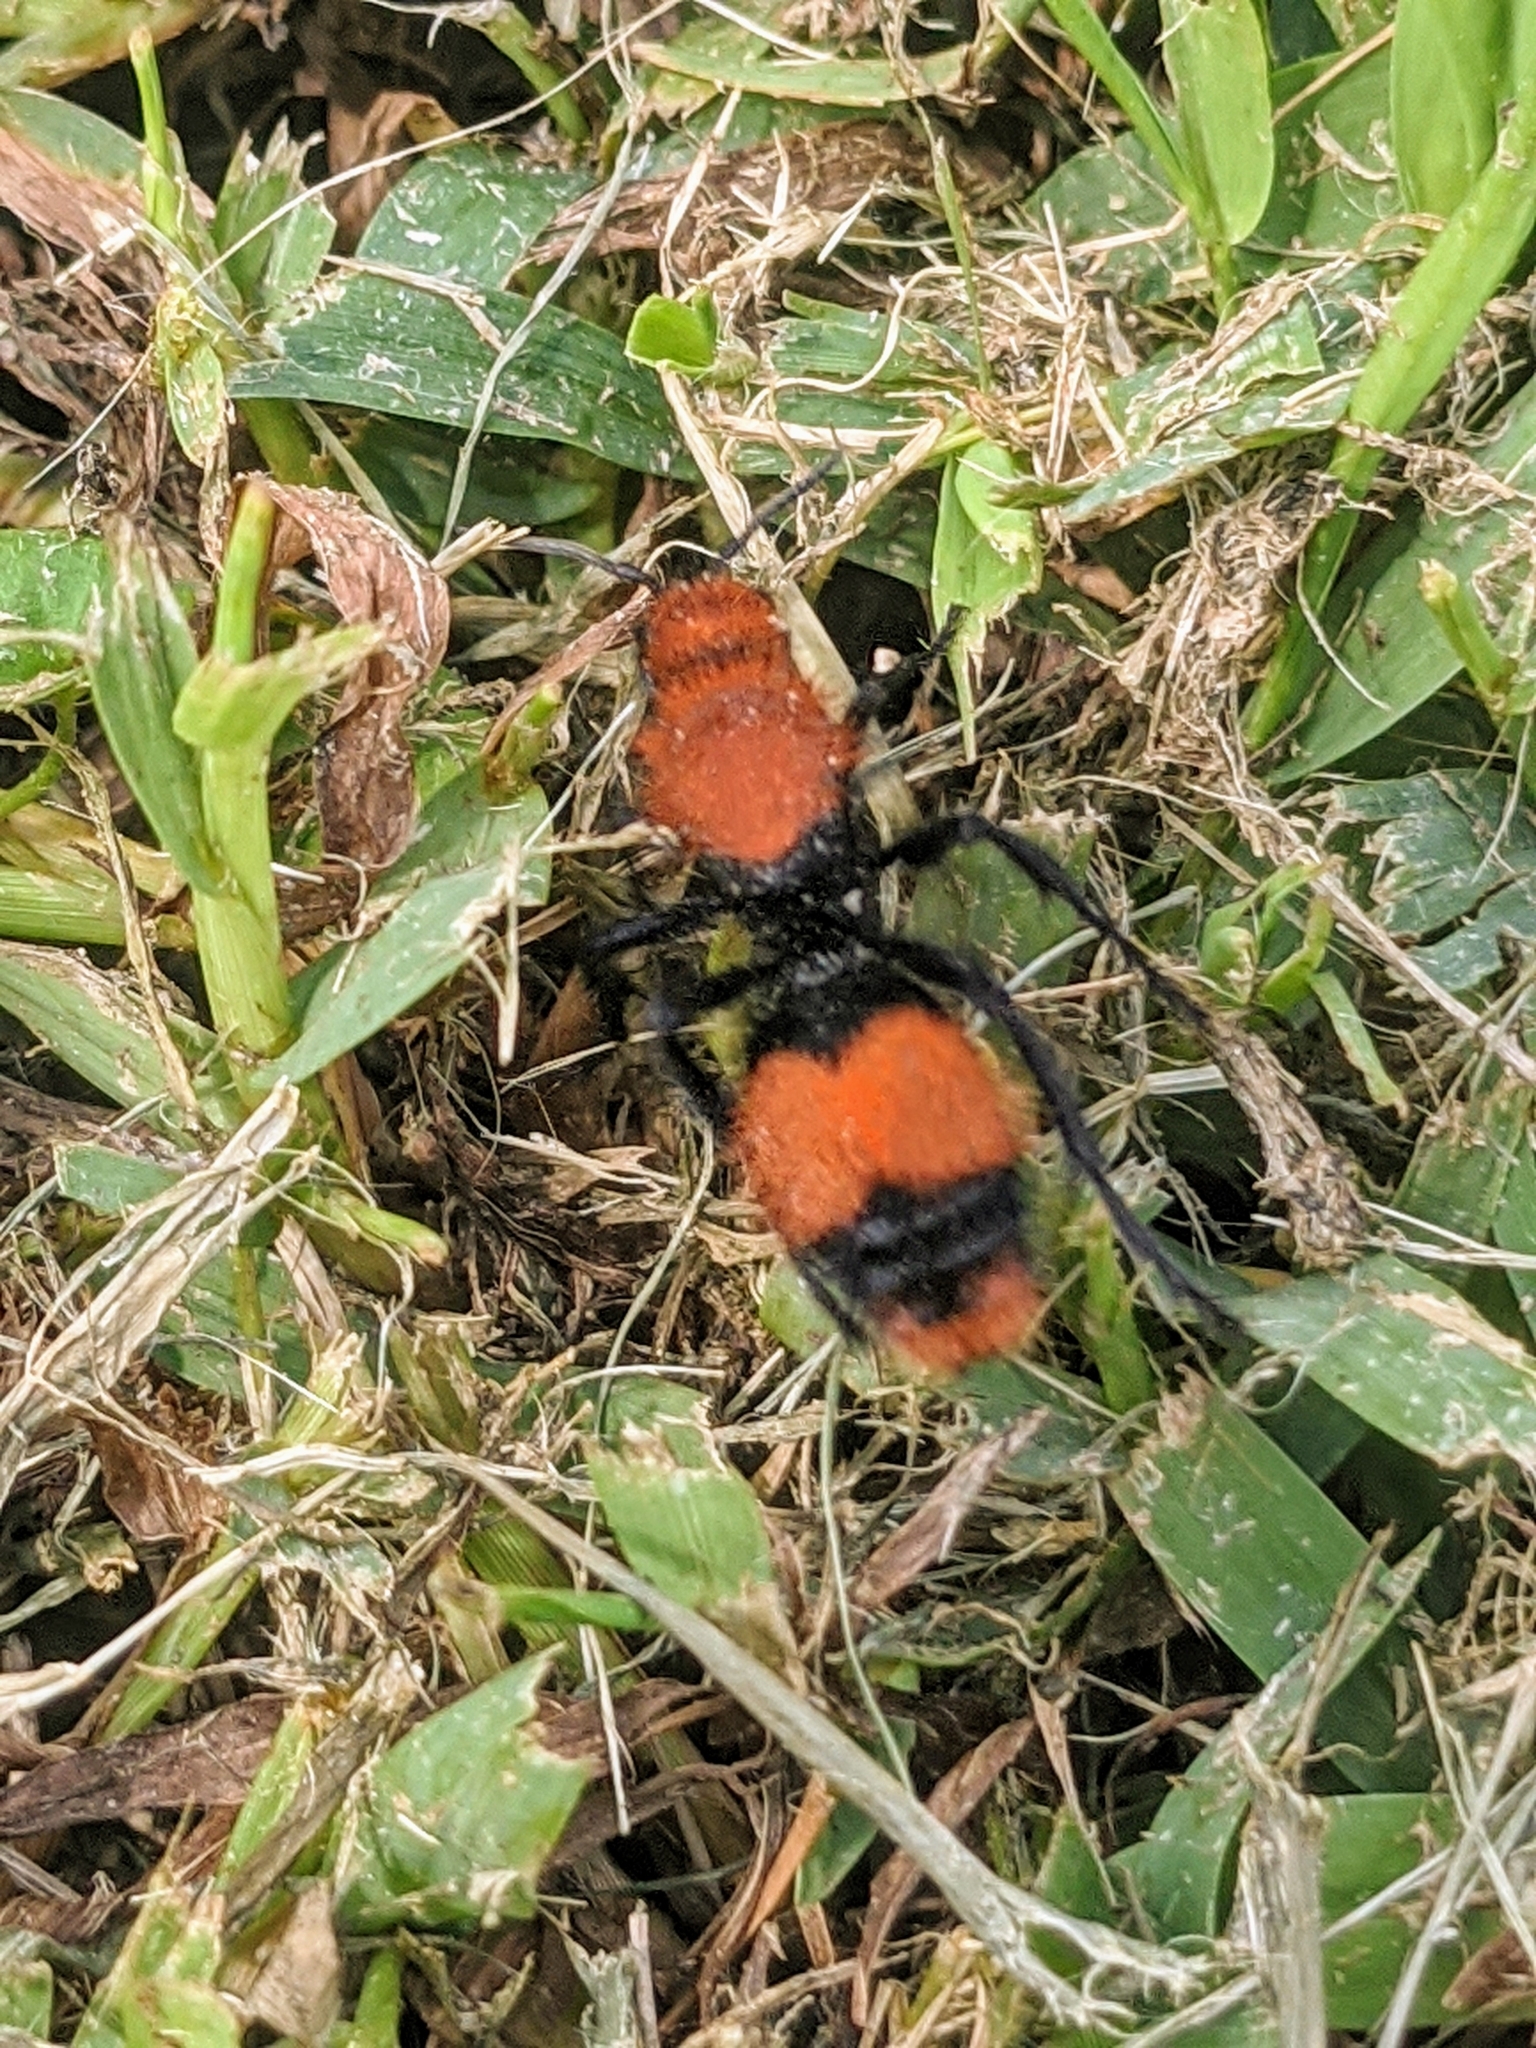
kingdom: Animalia
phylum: Arthropoda
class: Insecta
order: Hymenoptera
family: Mutillidae
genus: Dasymutilla
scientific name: Dasymutilla occidentalis
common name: Common eastern velvet ant
